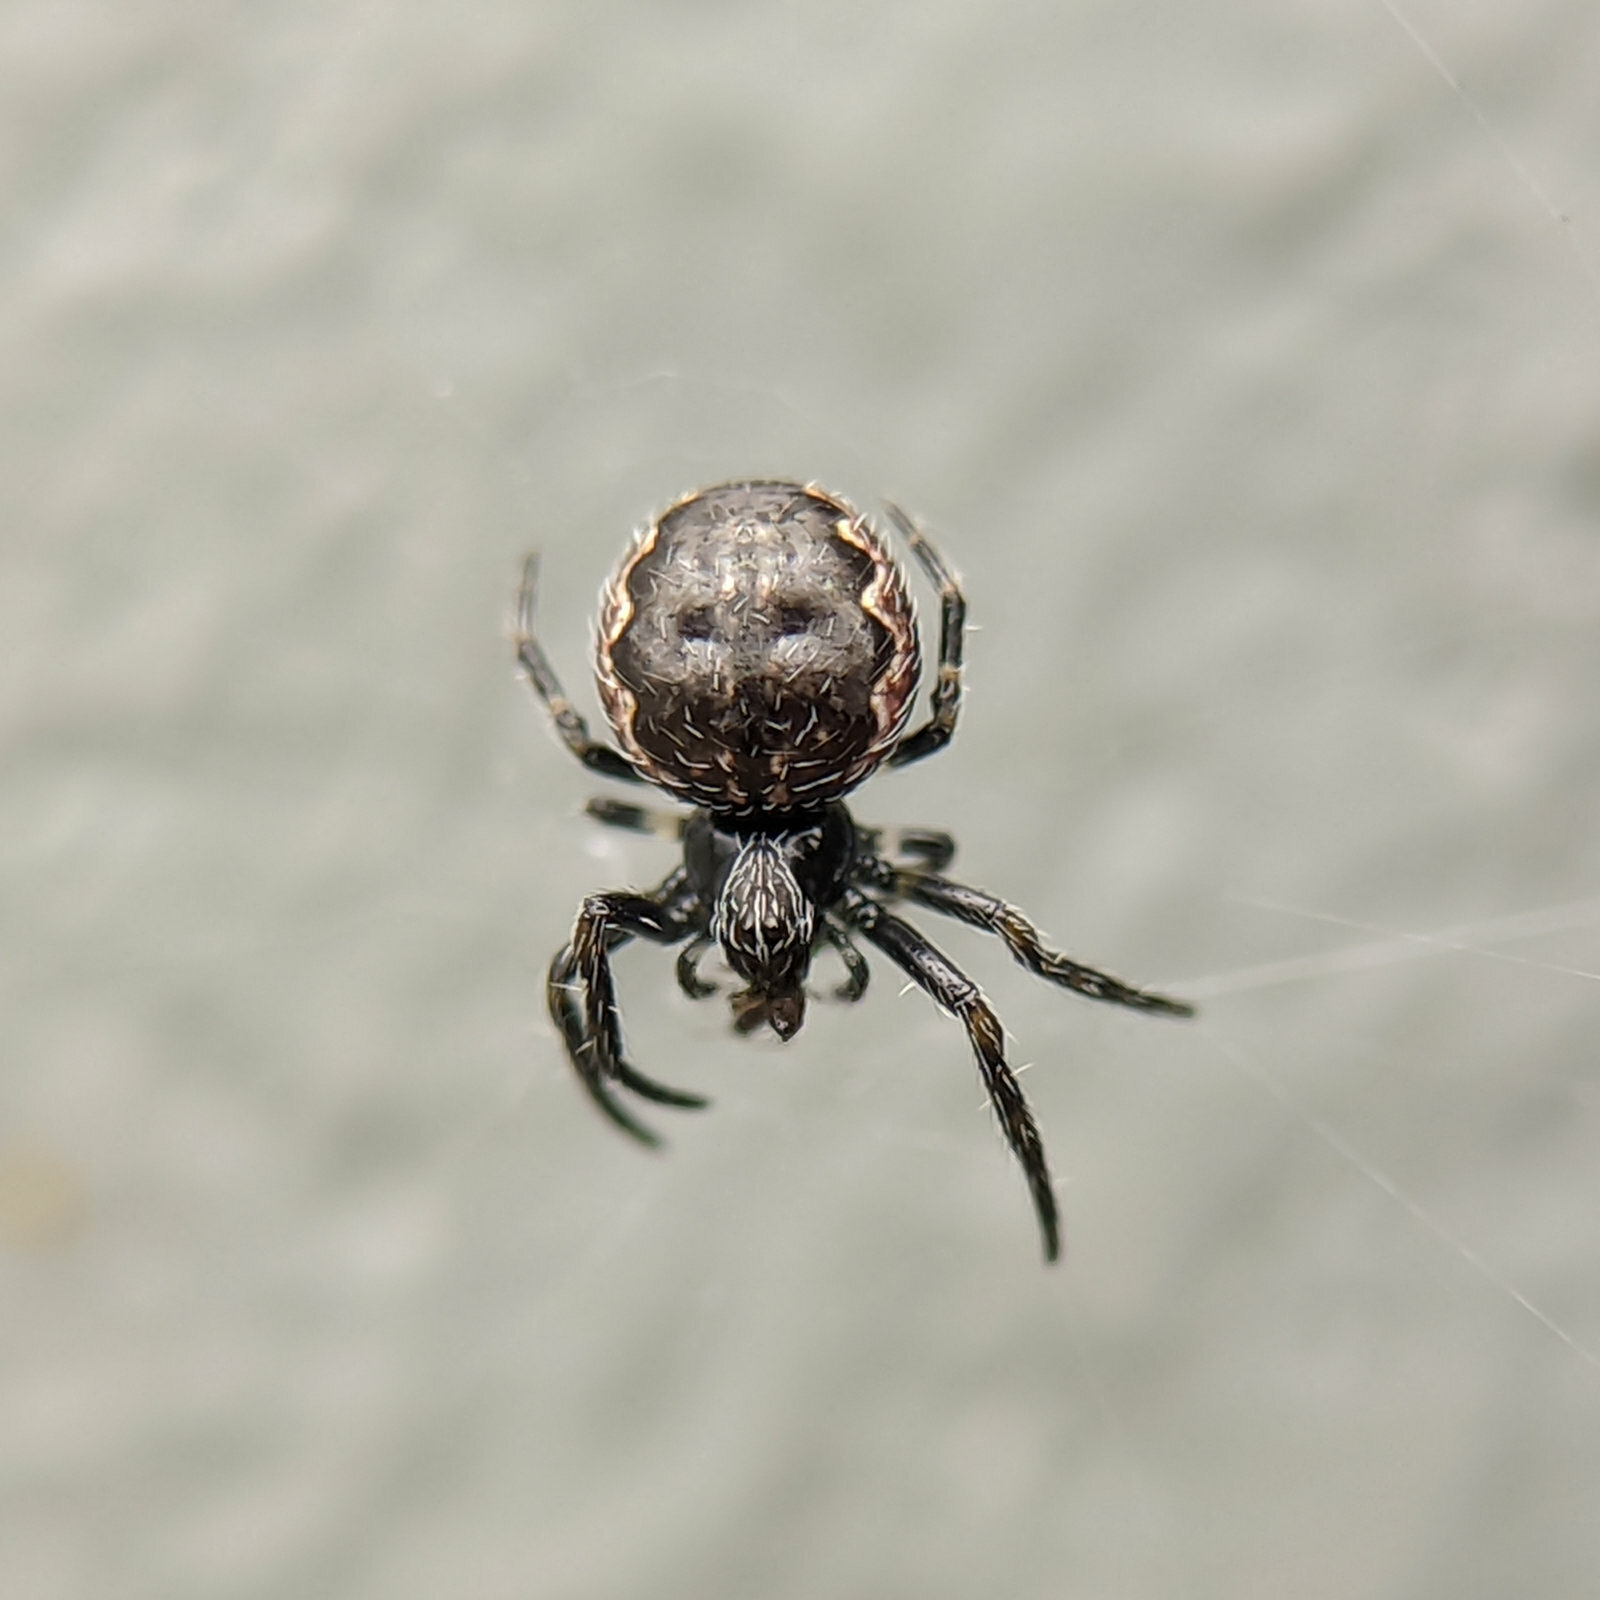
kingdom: Animalia
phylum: Arthropoda
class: Arachnida
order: Araneae
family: Araneidae
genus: Nuctenea
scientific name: Nuctenea umbratica
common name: Toad spider
